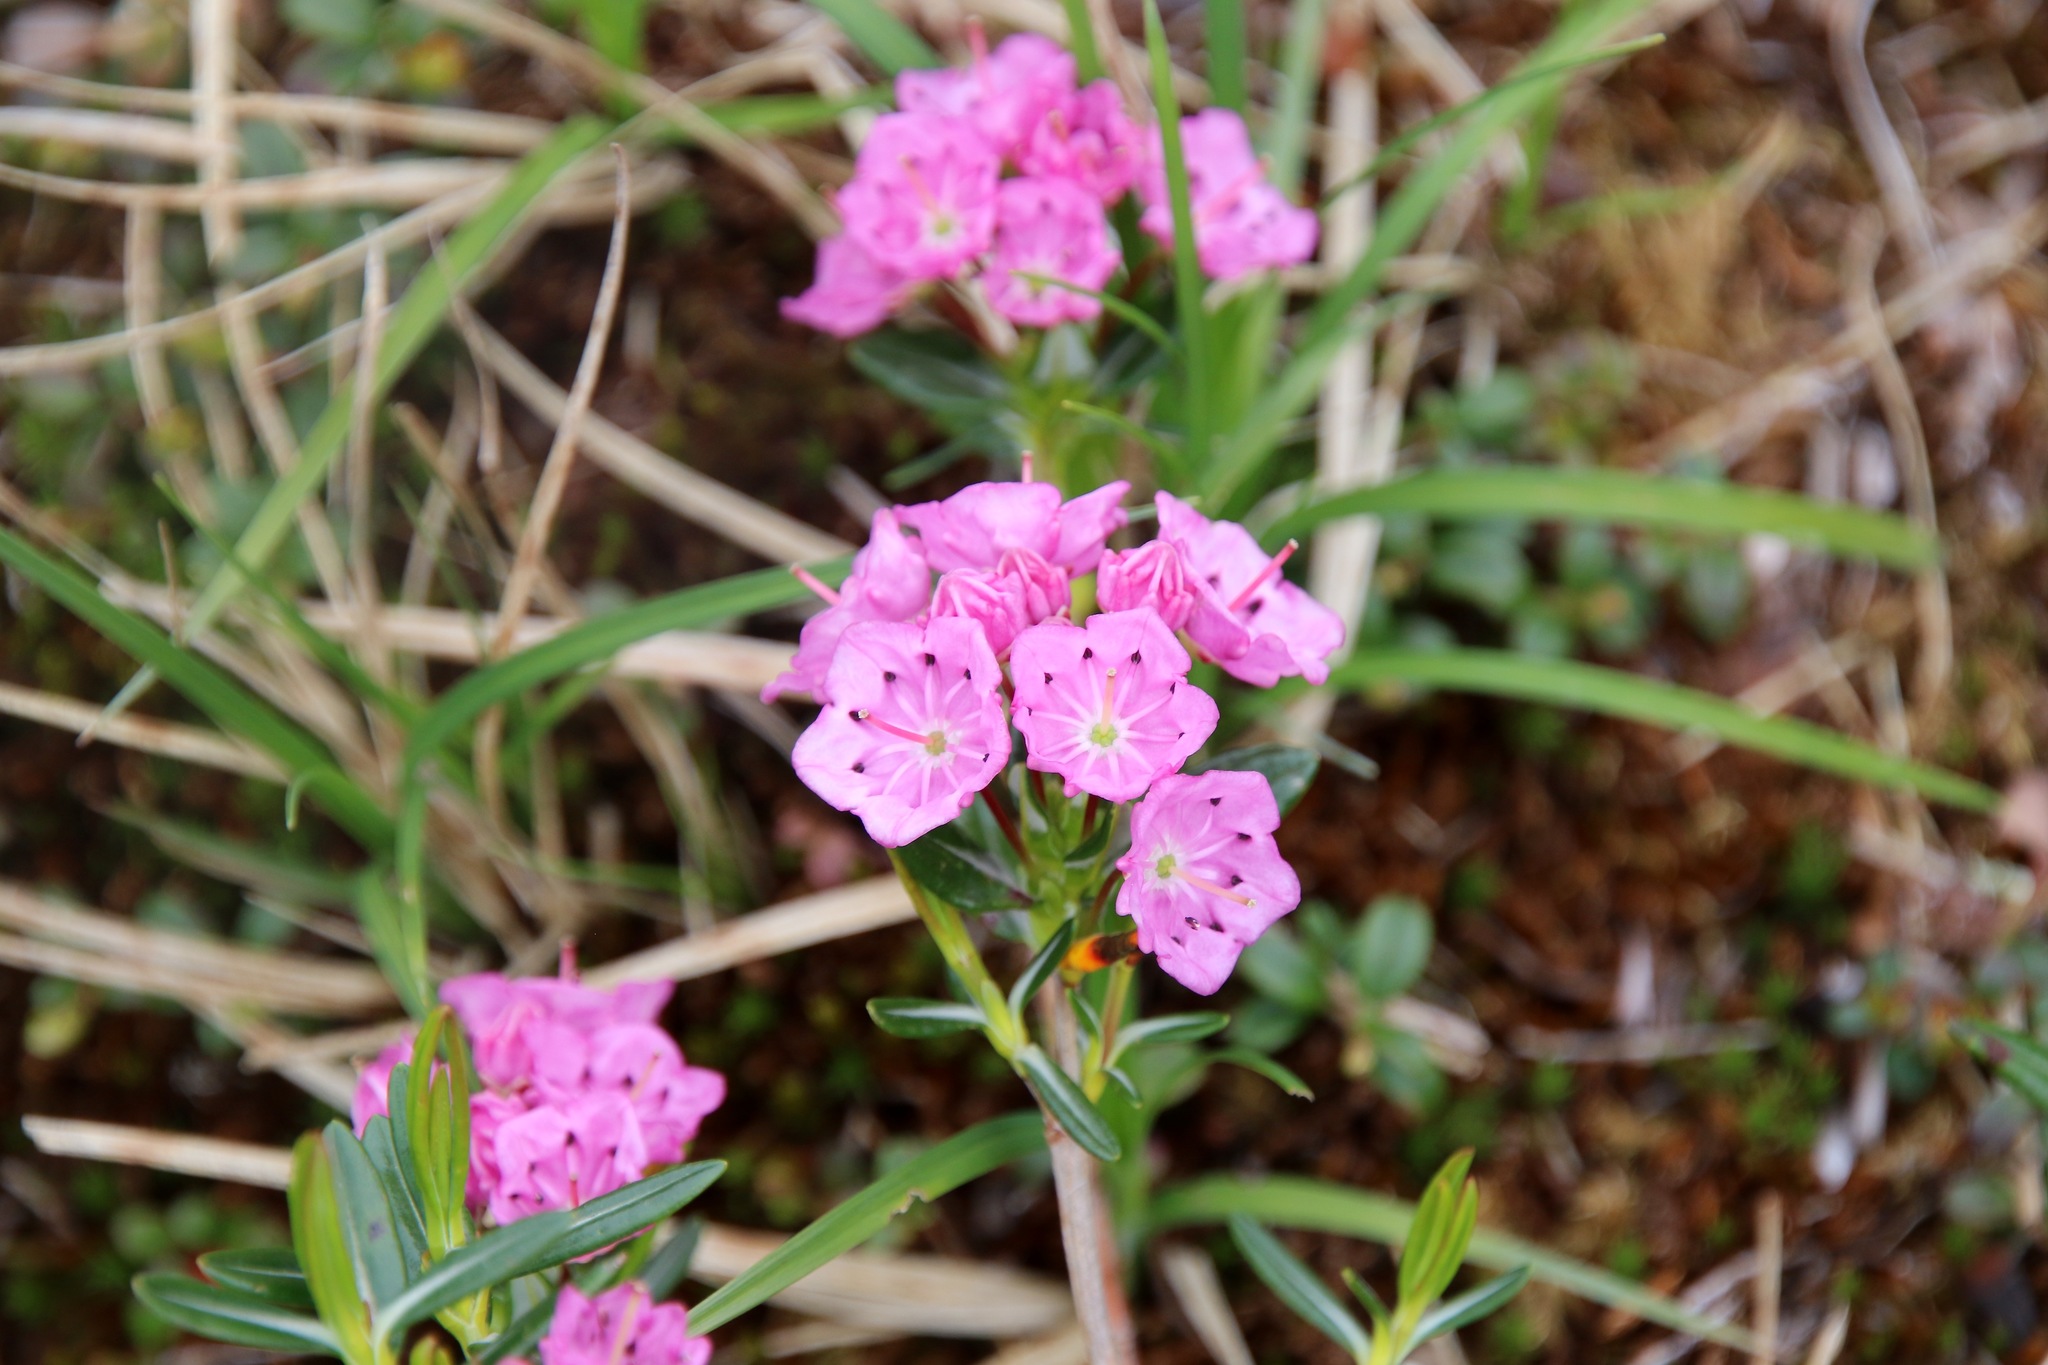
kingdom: Plantae
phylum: Tracheophyta
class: Magnoliopsida
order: Ericales
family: Ericaceae
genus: Kalmia
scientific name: Kalmia polifolia
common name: Bog-laurel
